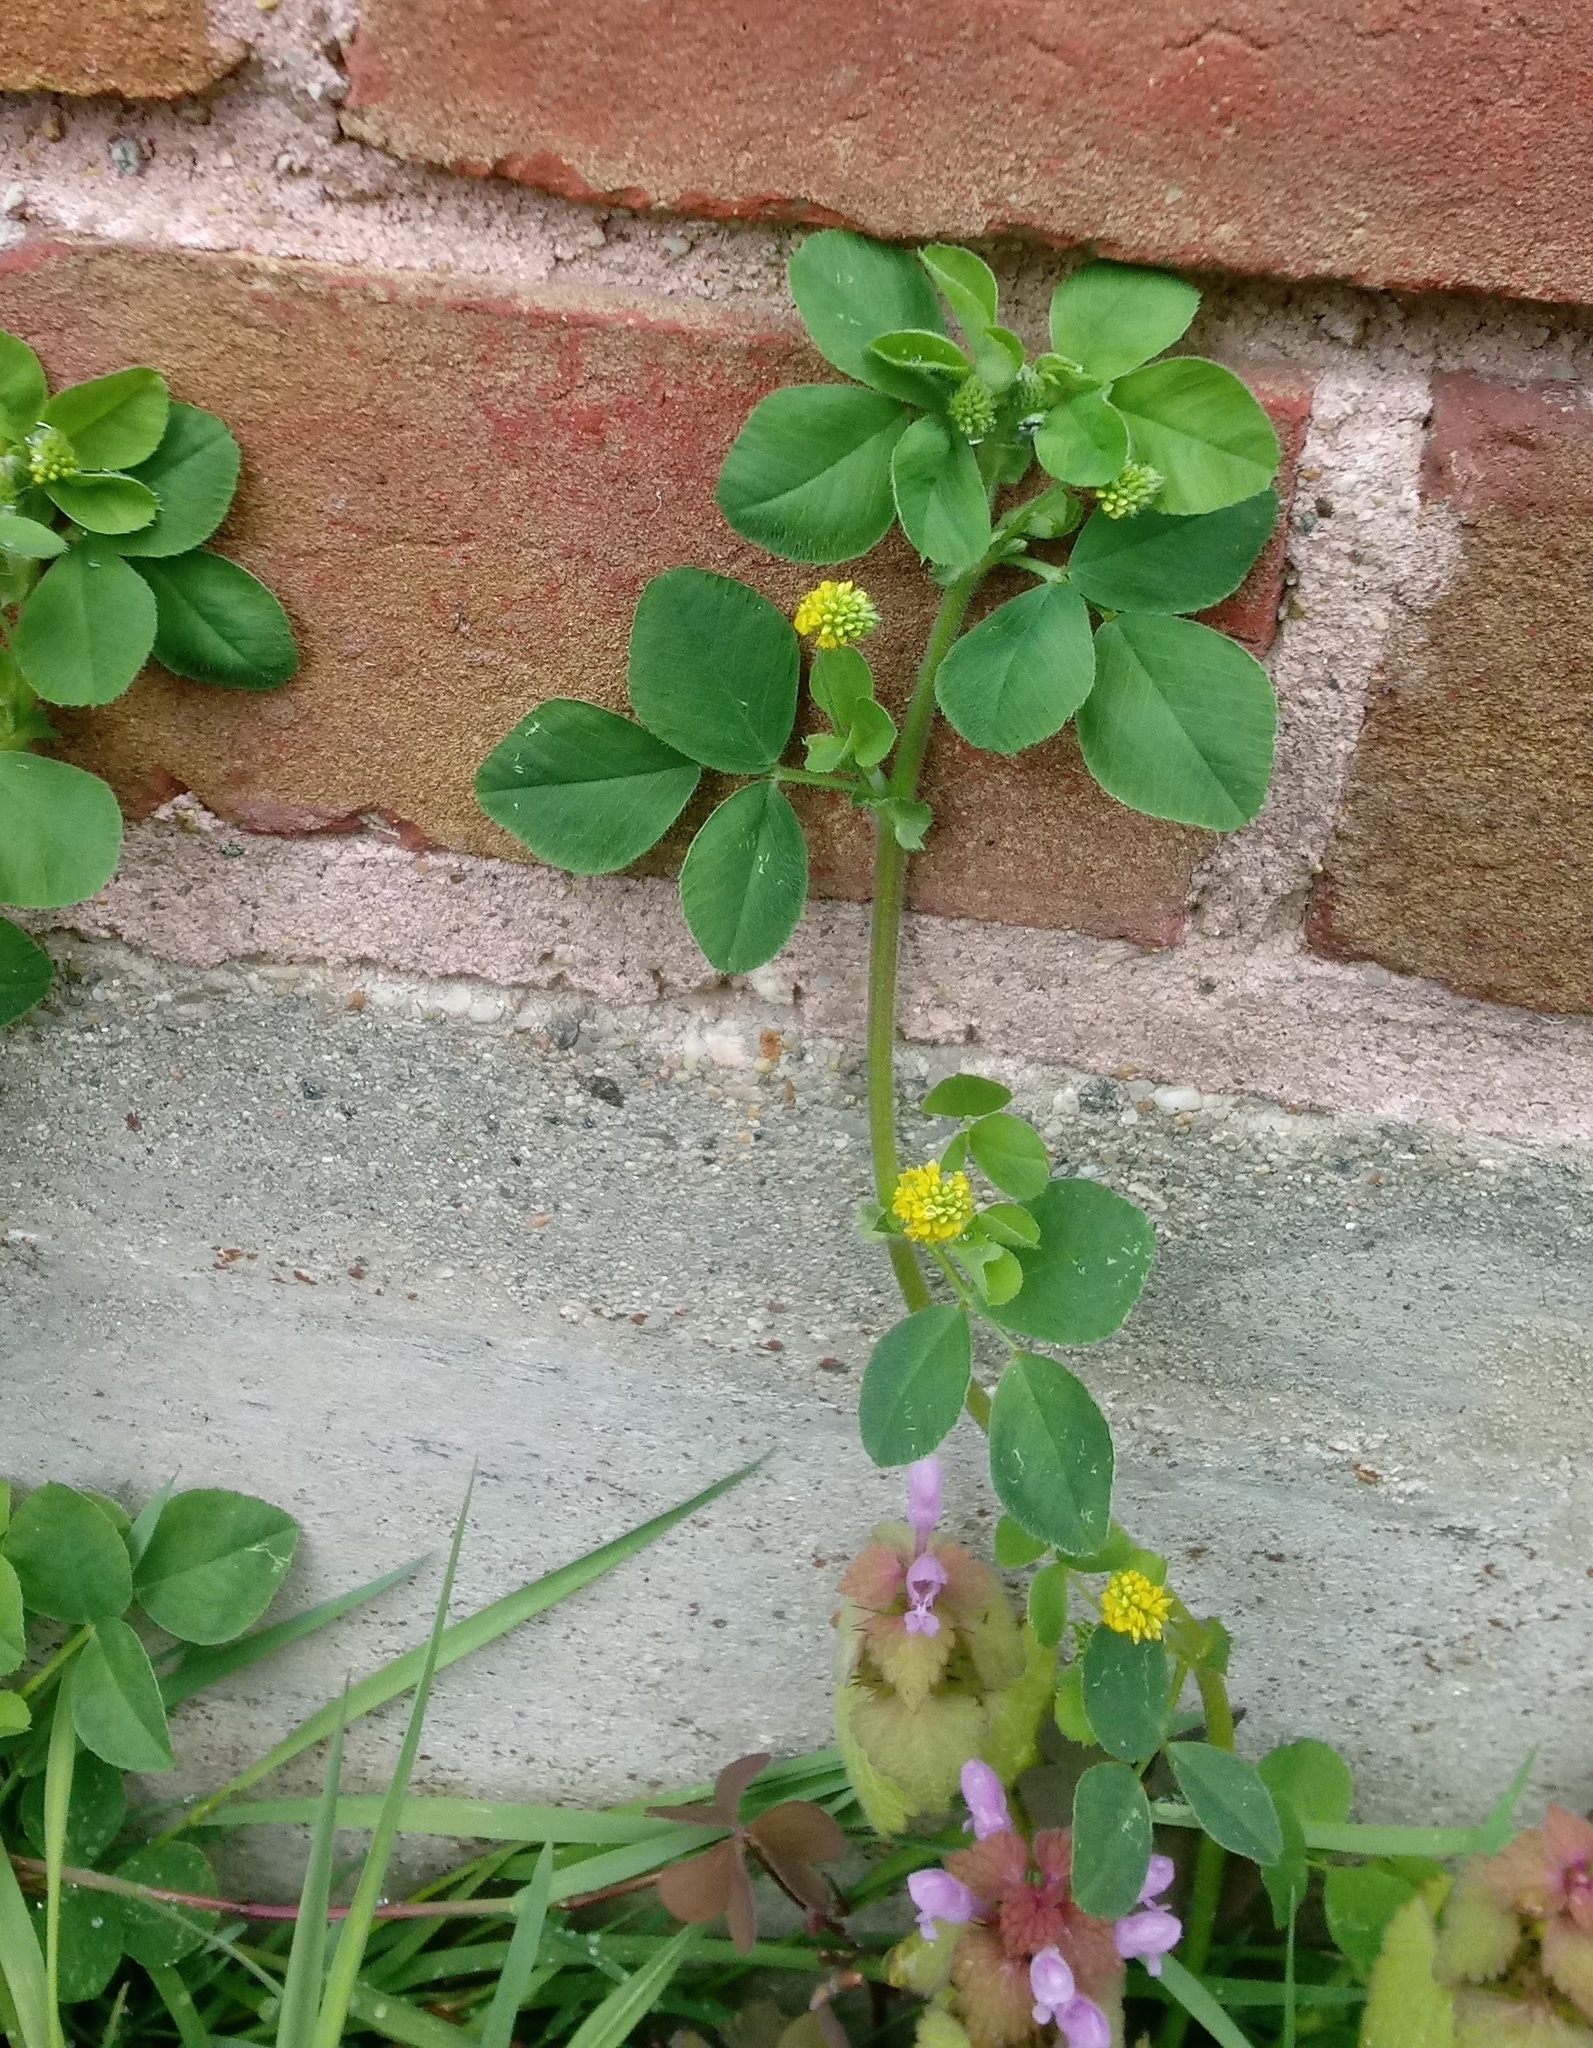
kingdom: Plantae
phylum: Tracheophyta
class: Magnoliopsida
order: Fabales
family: Fabaceae
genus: Medicago
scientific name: Medicago lupulina
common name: Black medick
